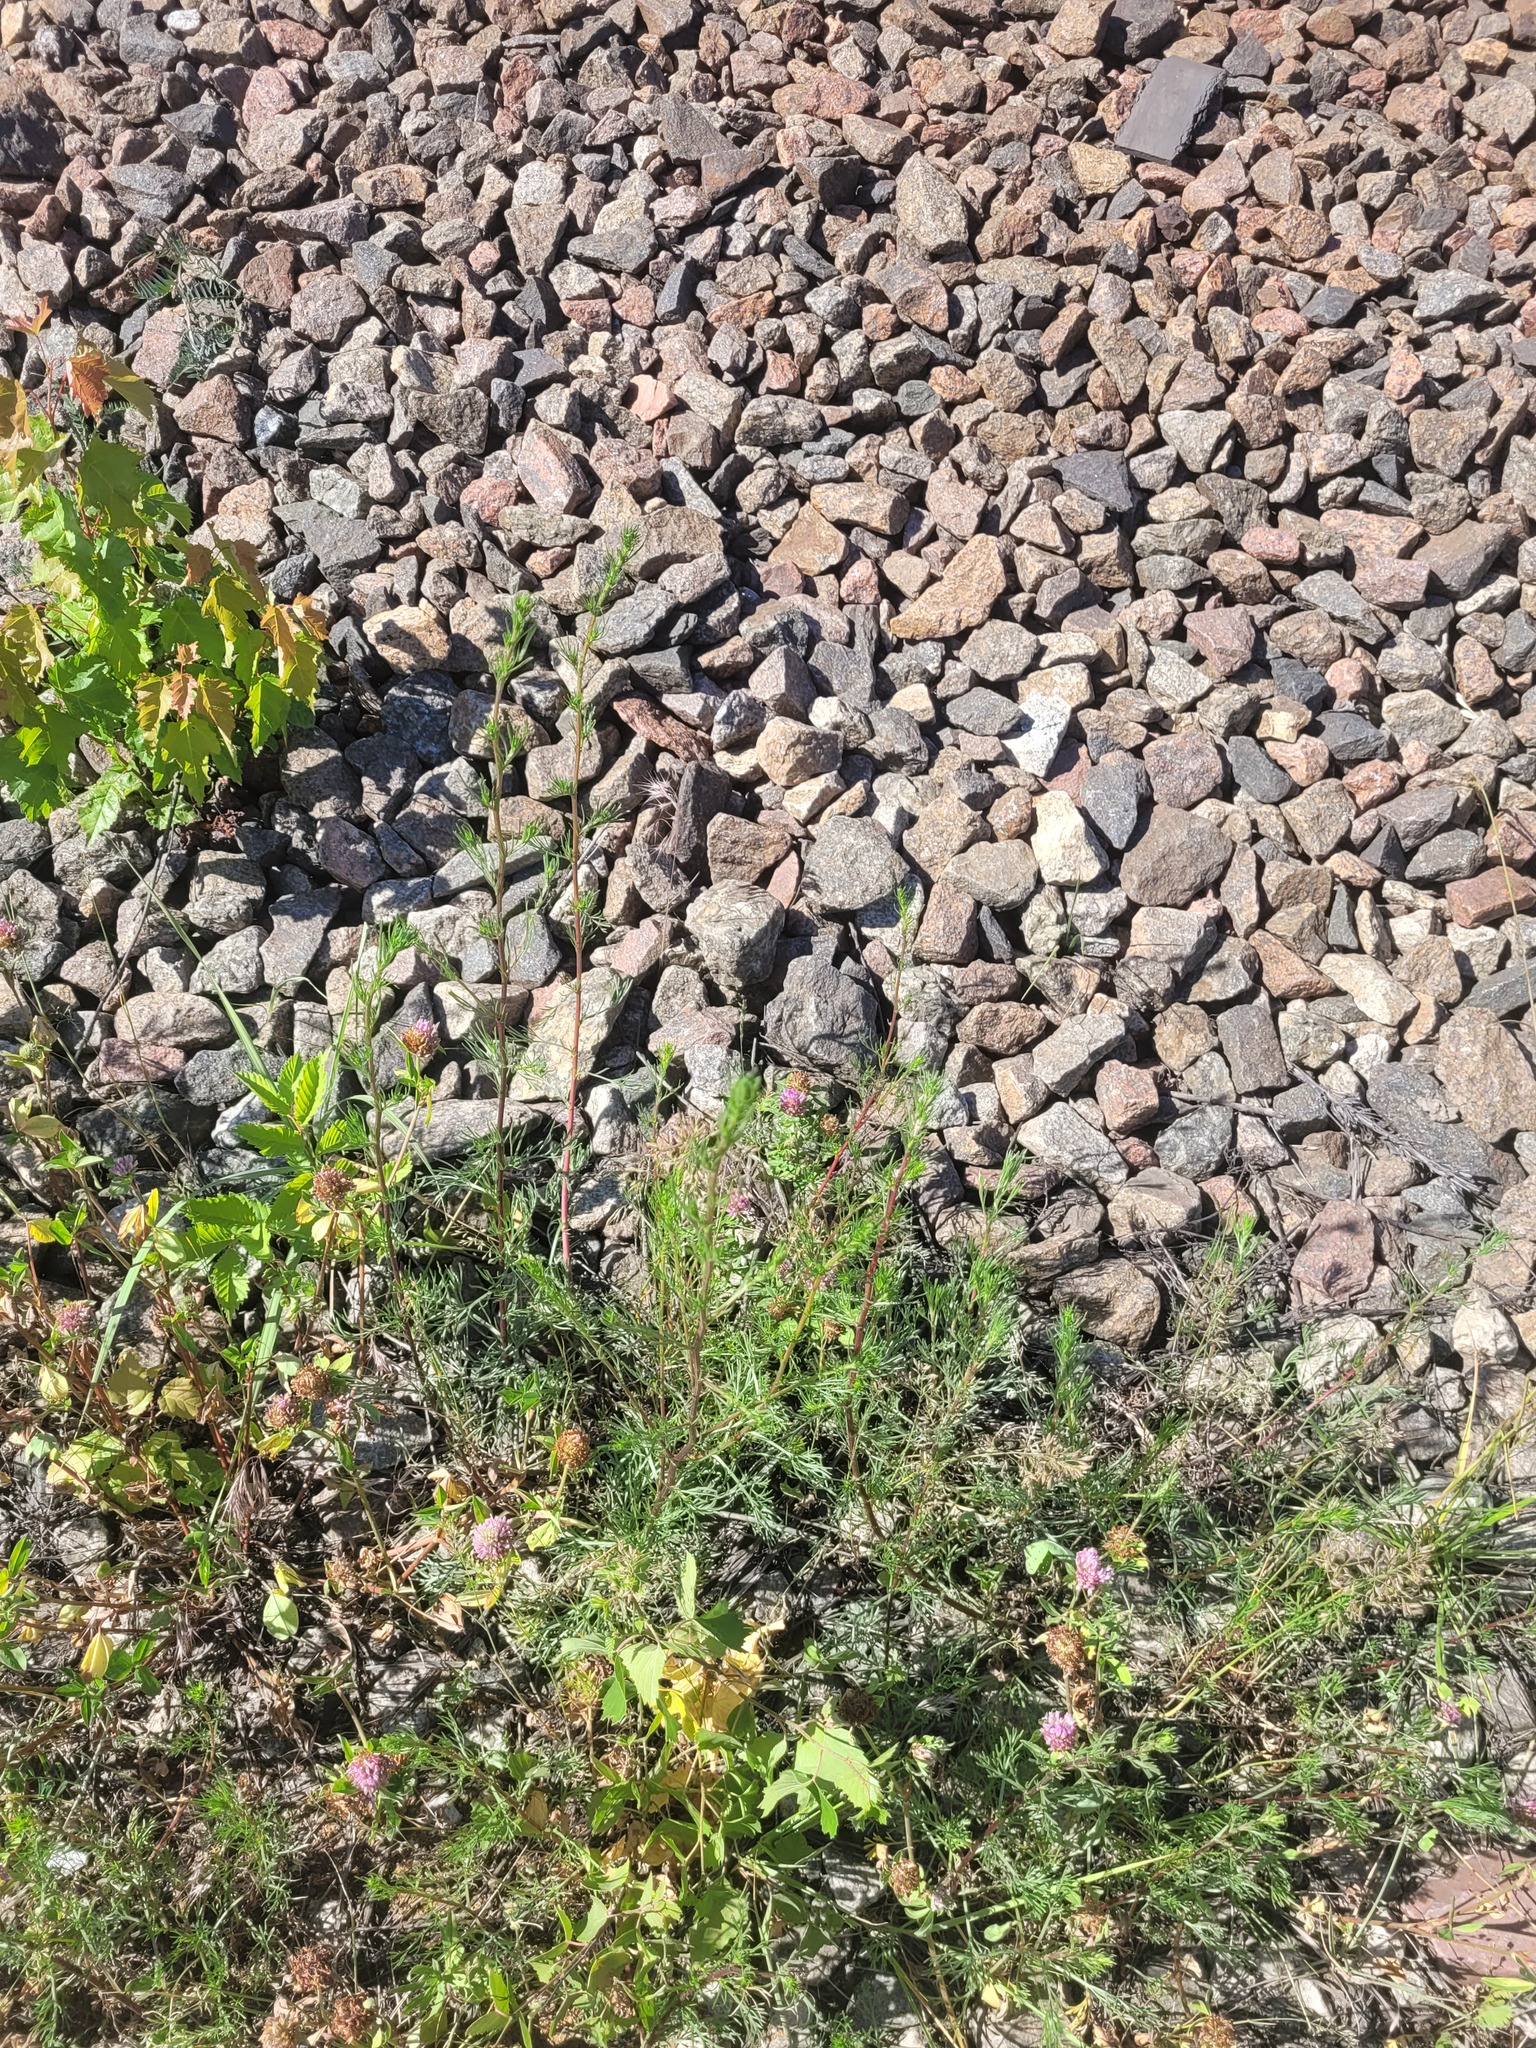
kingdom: Plantae
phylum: Tracheophyta
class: Magnoliopsida
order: Asterales
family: Asteraceae
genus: Artemisia
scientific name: Artemisia campestris
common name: Field wormwood
